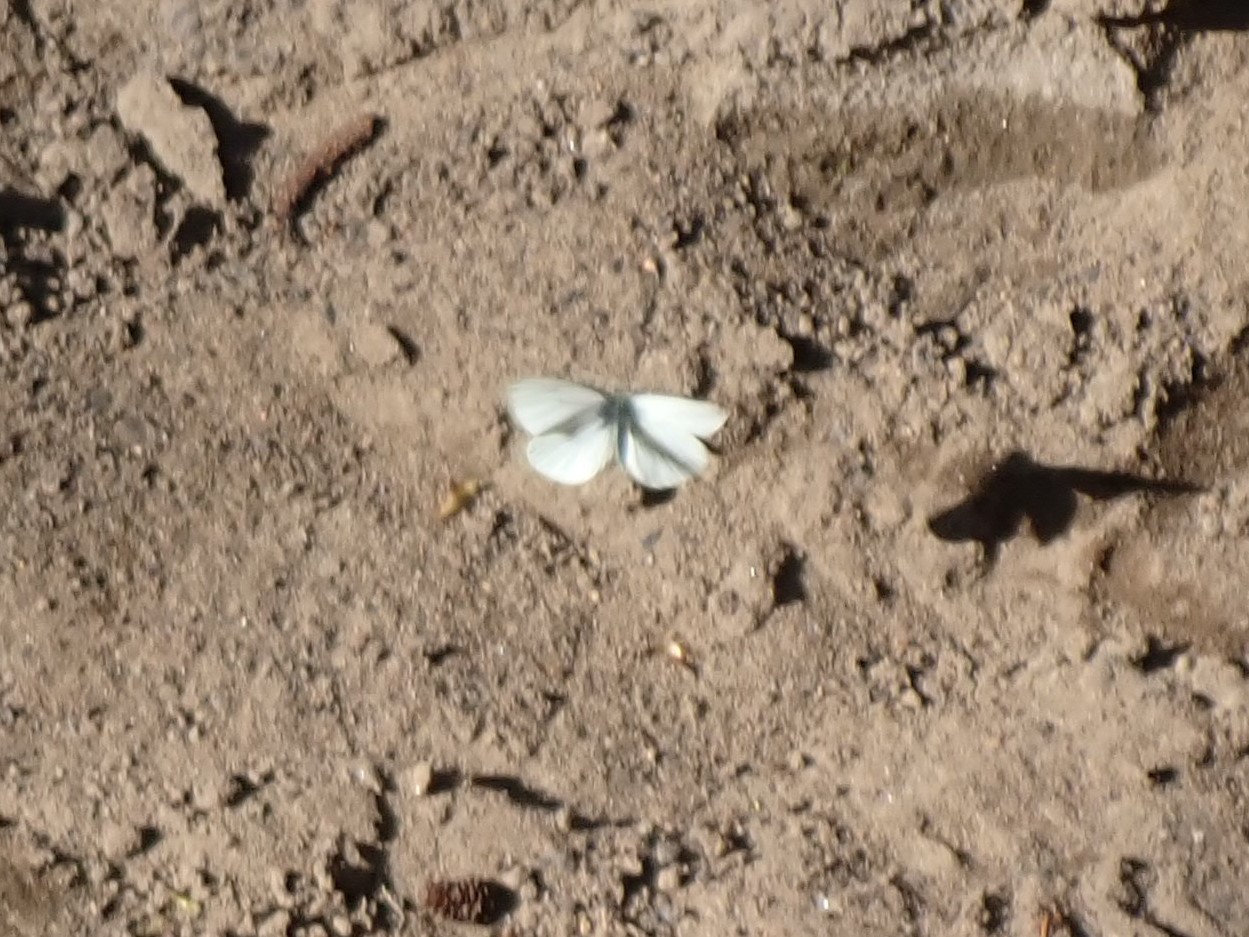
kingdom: Animalia
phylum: Arthropoda
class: Insecta
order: Lepidoptera
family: Pieridae
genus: Pieris
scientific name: Pieris marginalis
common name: Margined white
